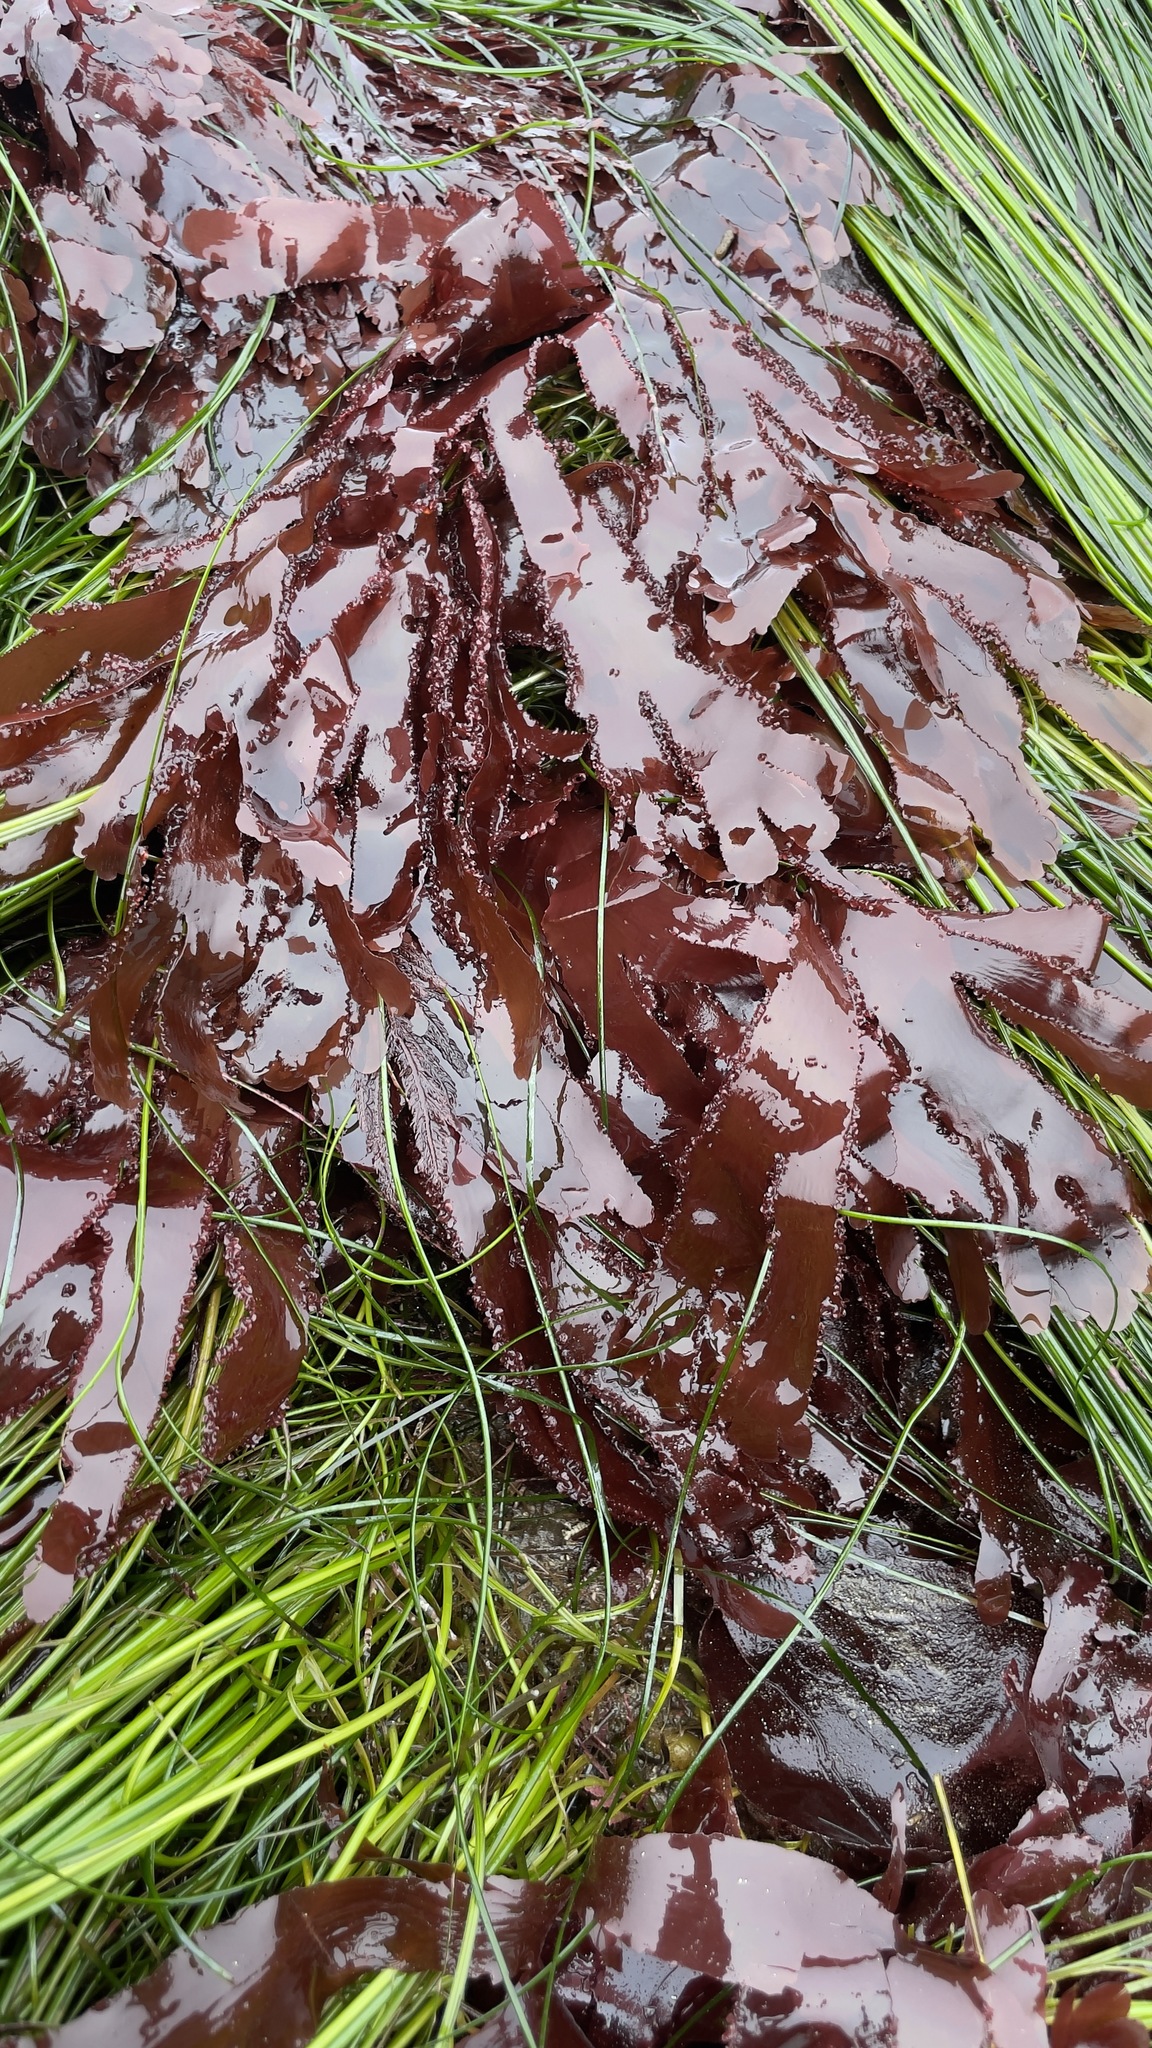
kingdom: Plantae
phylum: Rhodophyta
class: Florideophyceae
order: Ceramiales
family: Delesseriaceae
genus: Cryptopleura
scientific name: Cryptopleura ruprechtiana
